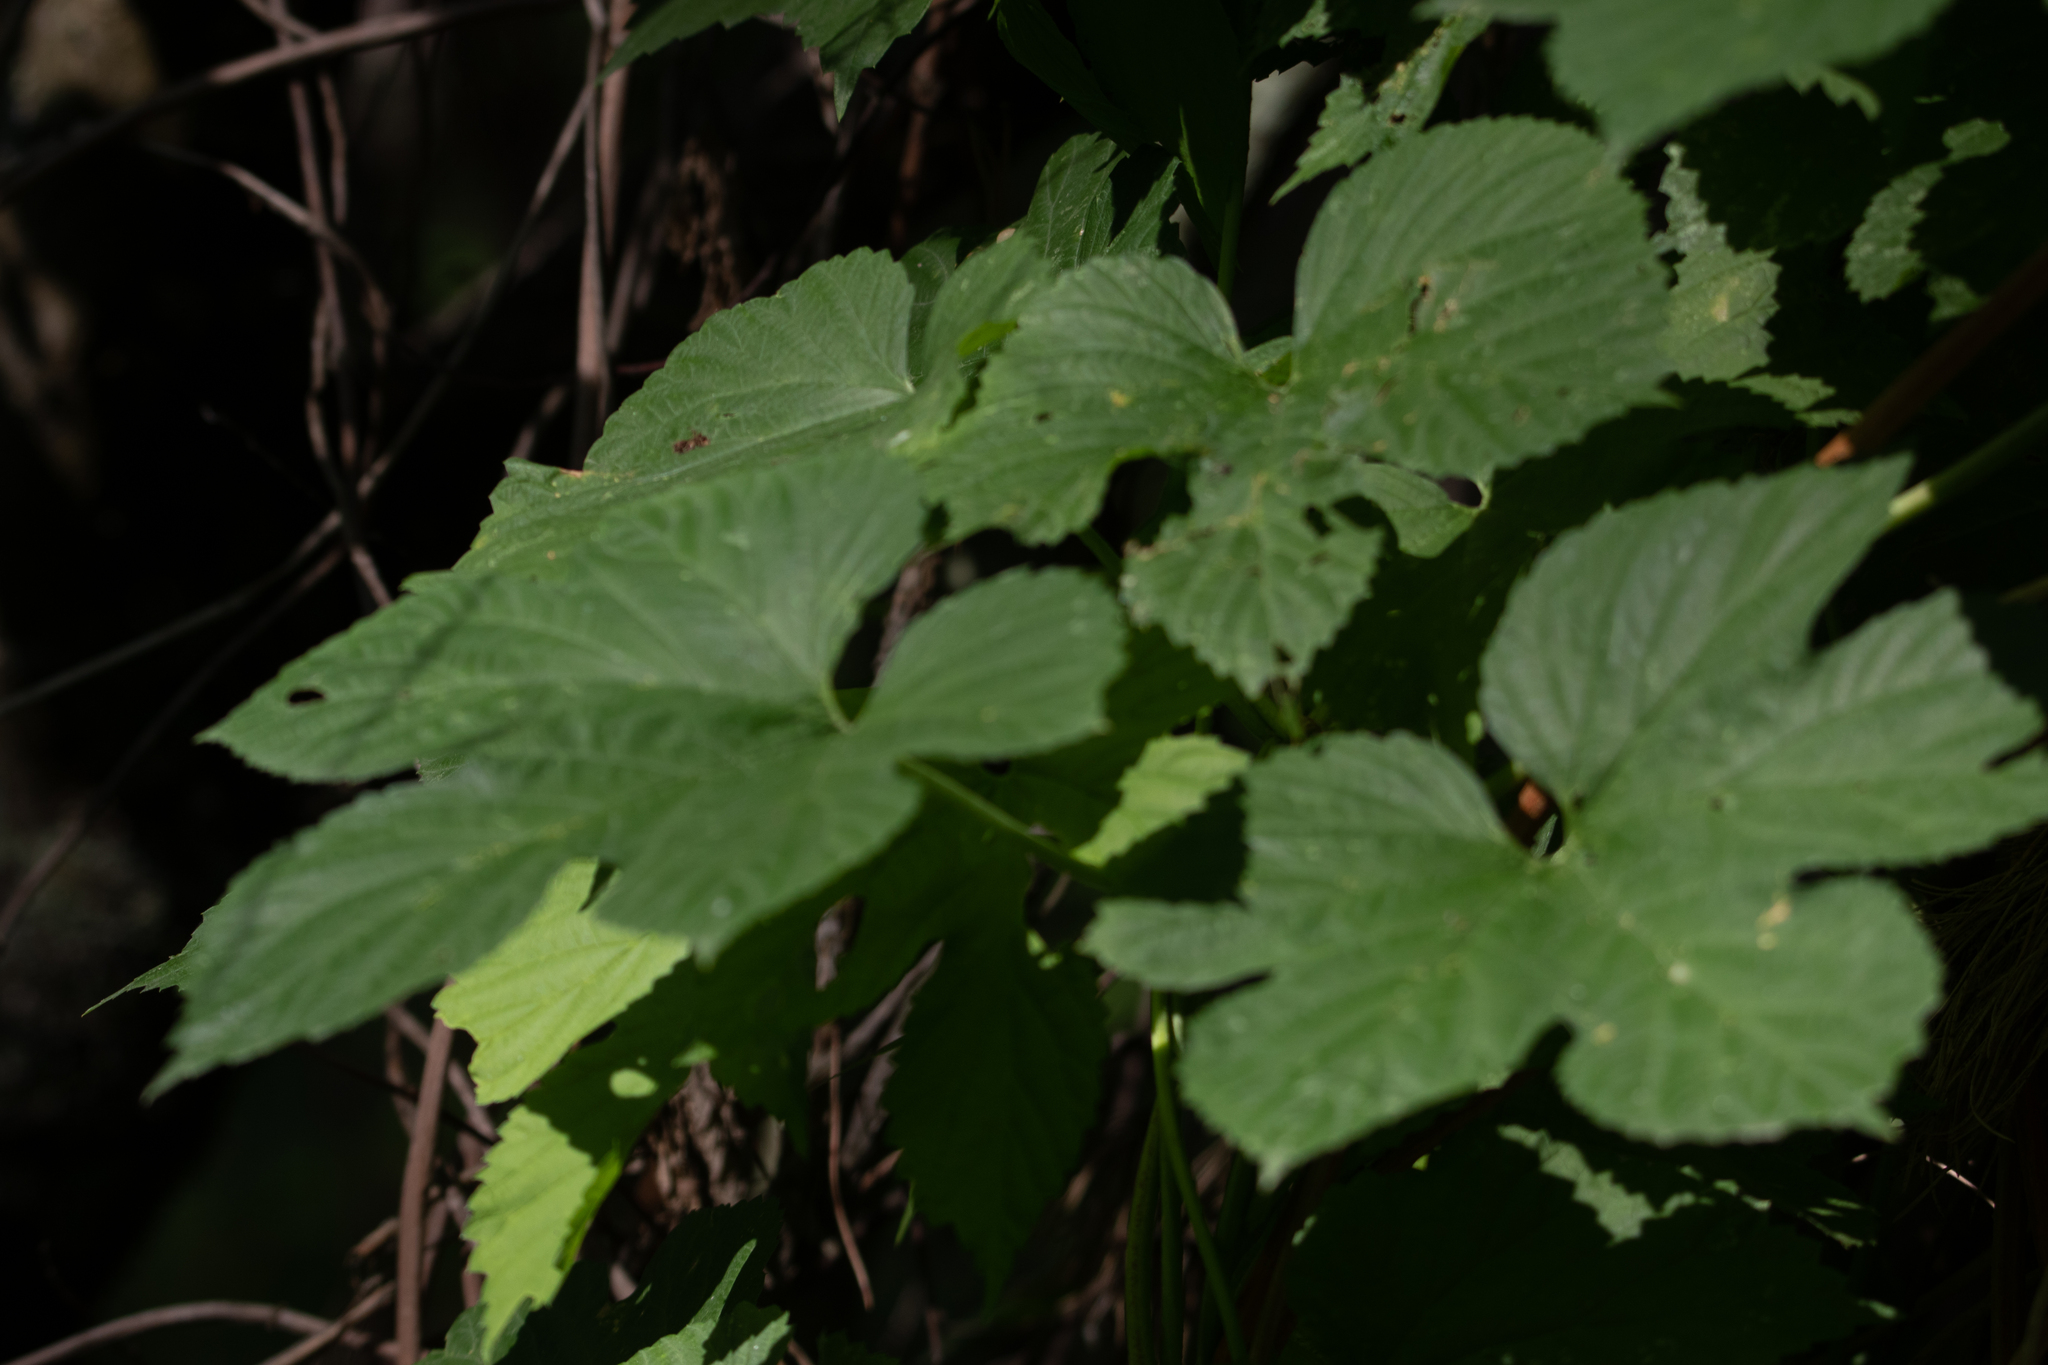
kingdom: Plantae
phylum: Tracheophyta
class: Magnoliopsida
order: Rosales
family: Cannabaceae
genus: Humulus
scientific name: Humulus lupulus
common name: Hop
